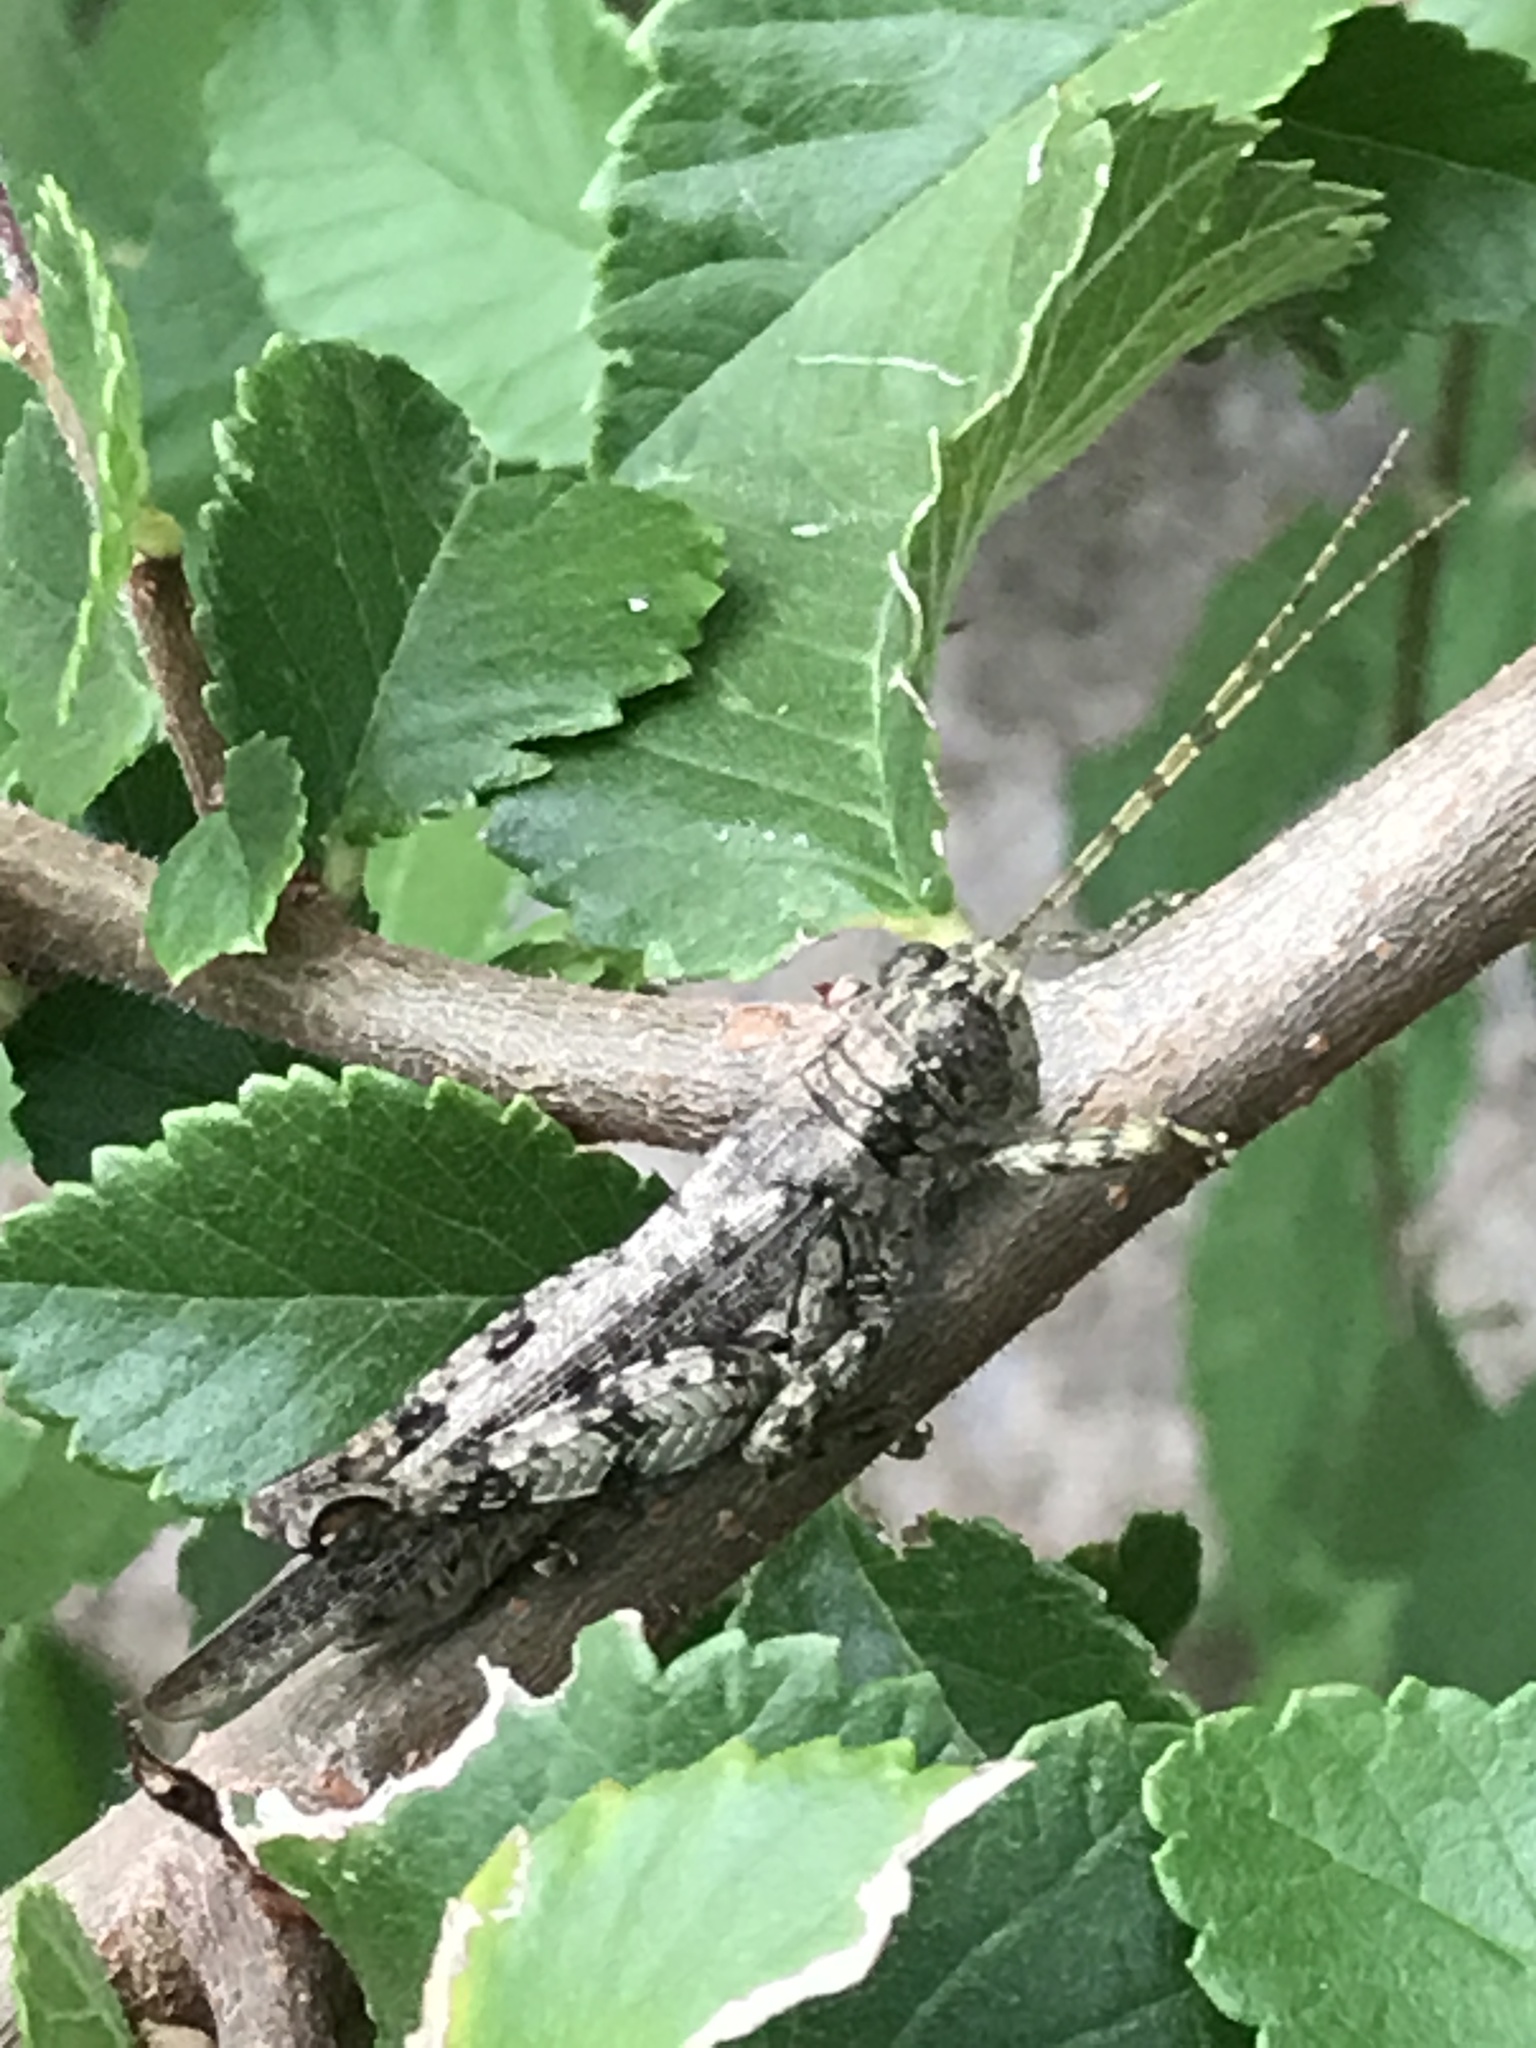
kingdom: Animalia
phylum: Arthropoda
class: Insecta
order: Orthoptera
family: Acrididae
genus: Melanoplus
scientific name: Melanoplus punctulatus
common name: Pine-tree spur-throat grasshopper
